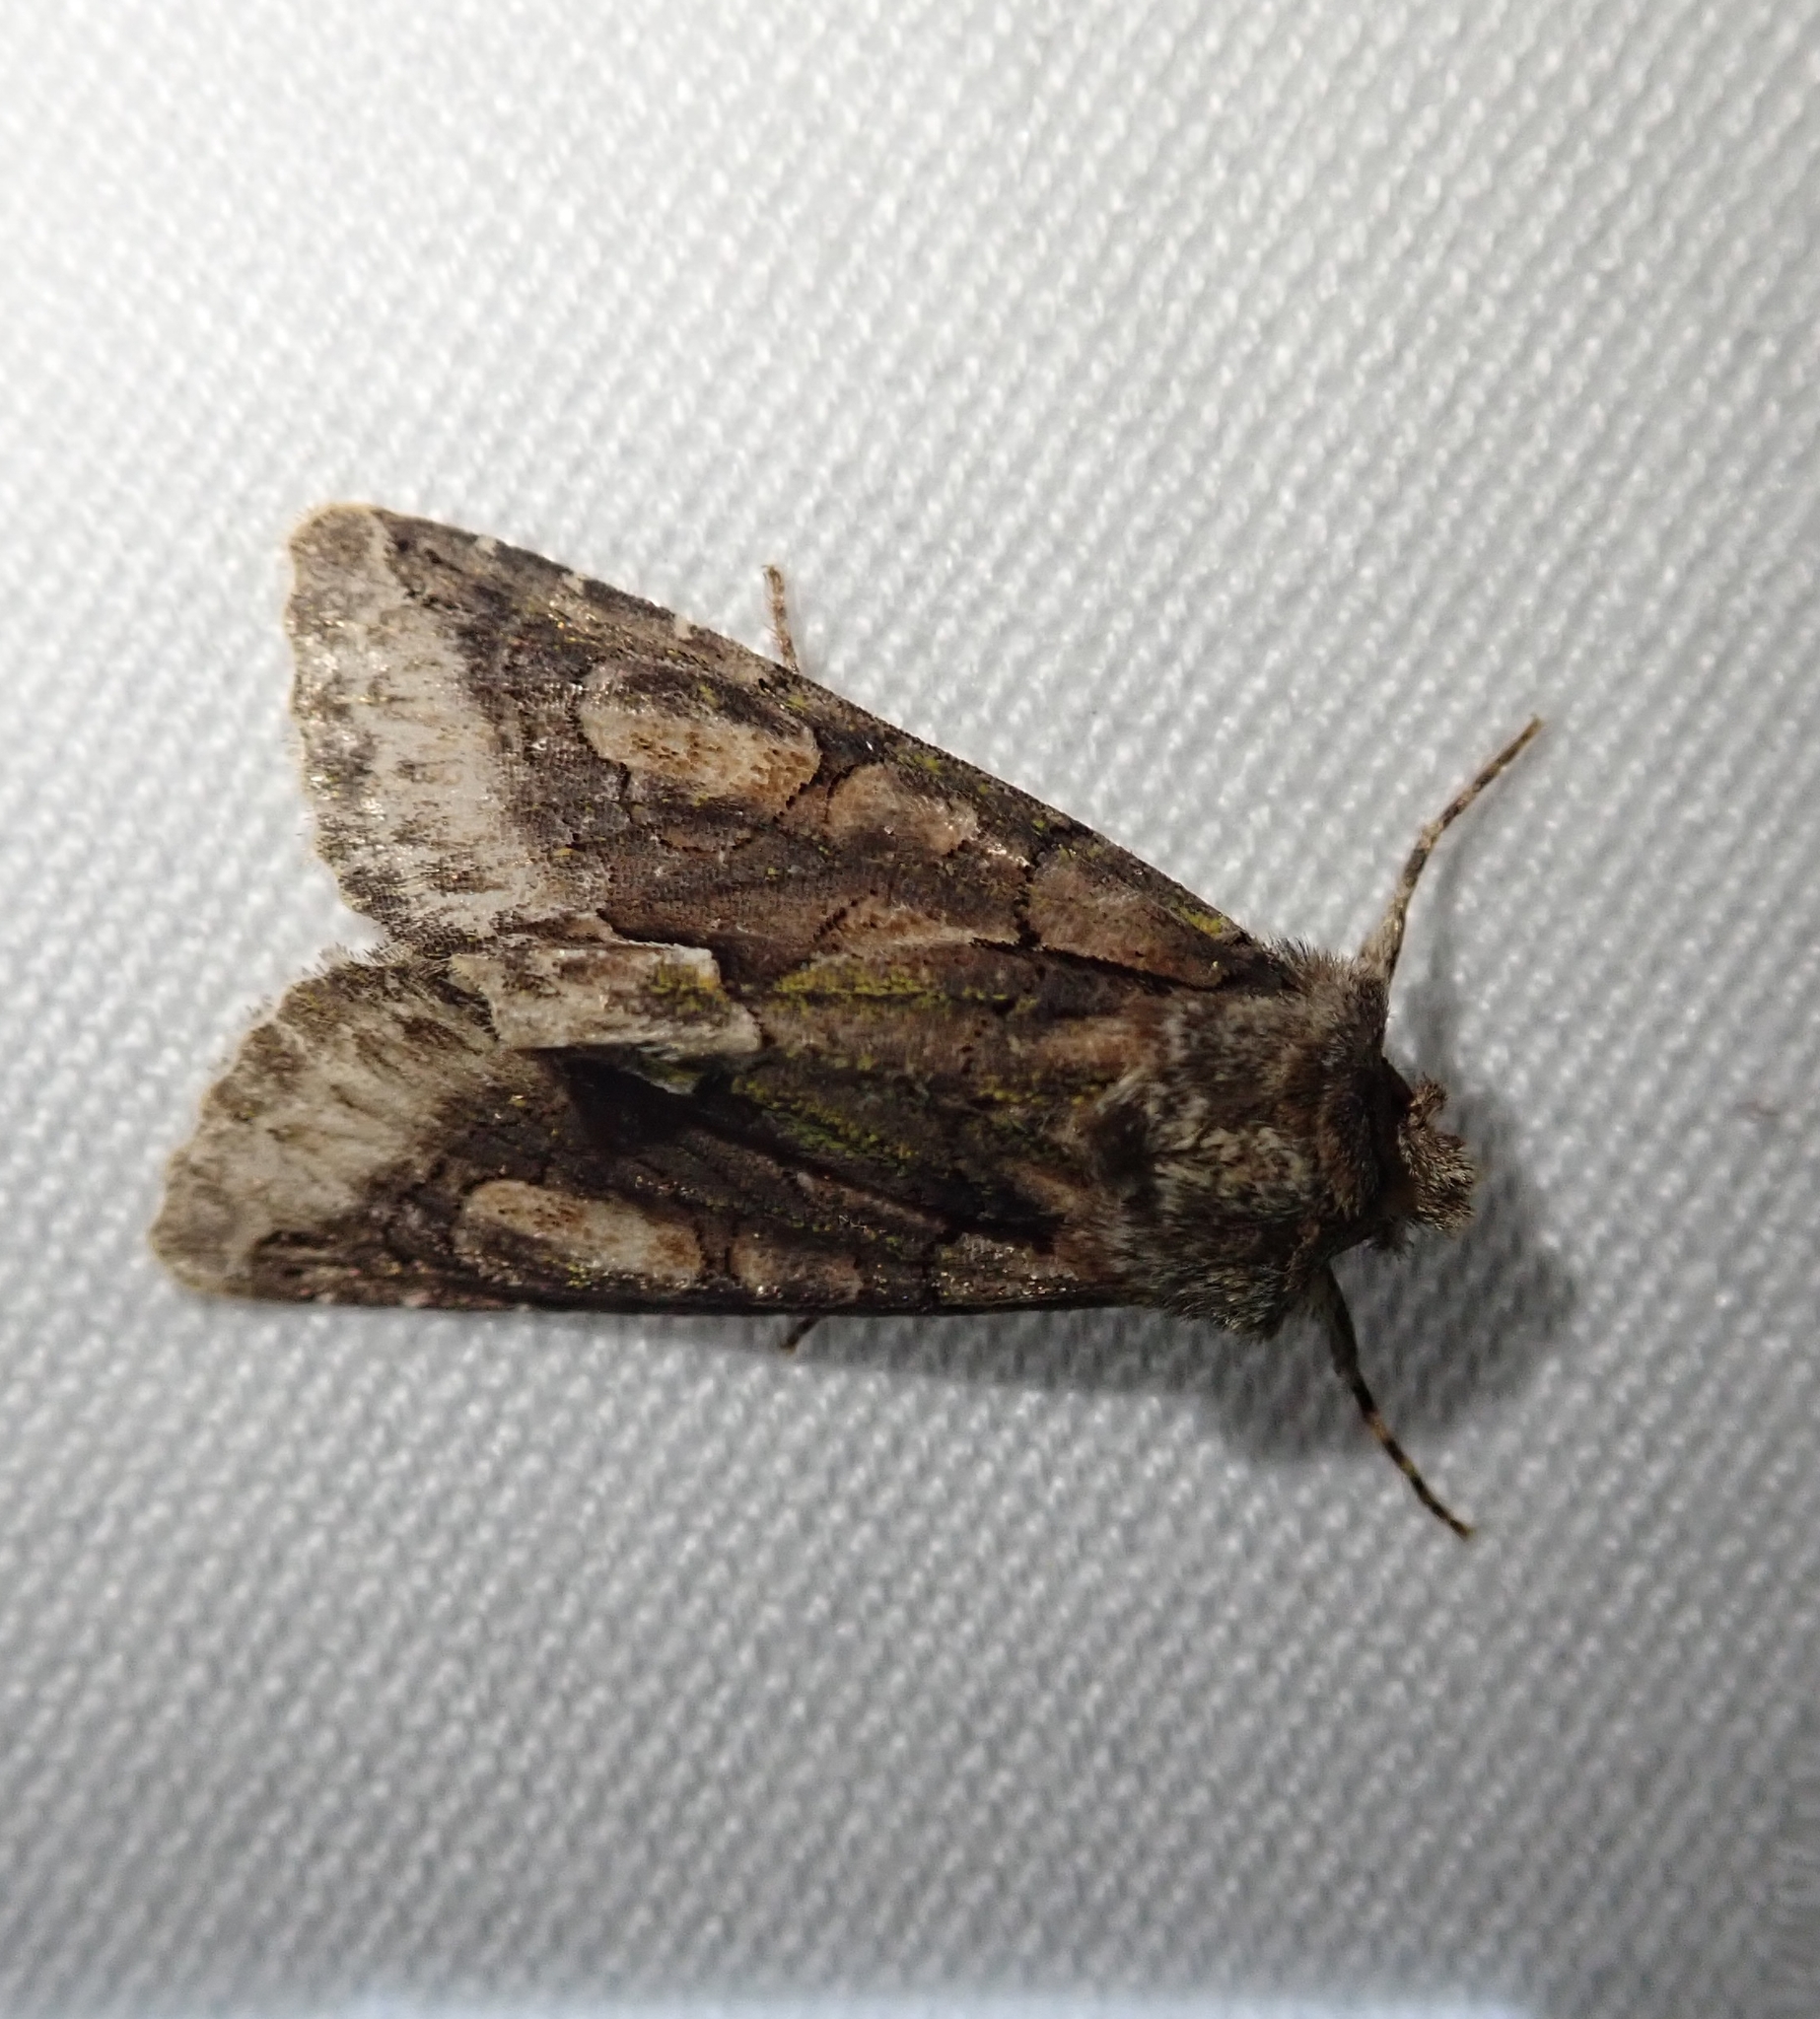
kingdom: Animalia
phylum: Arthropoda
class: Insecta
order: Lepidoptera
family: Noctuidae
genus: Allophyes
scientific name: Allophyes oxyacanthae
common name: Green-brindled crescent
